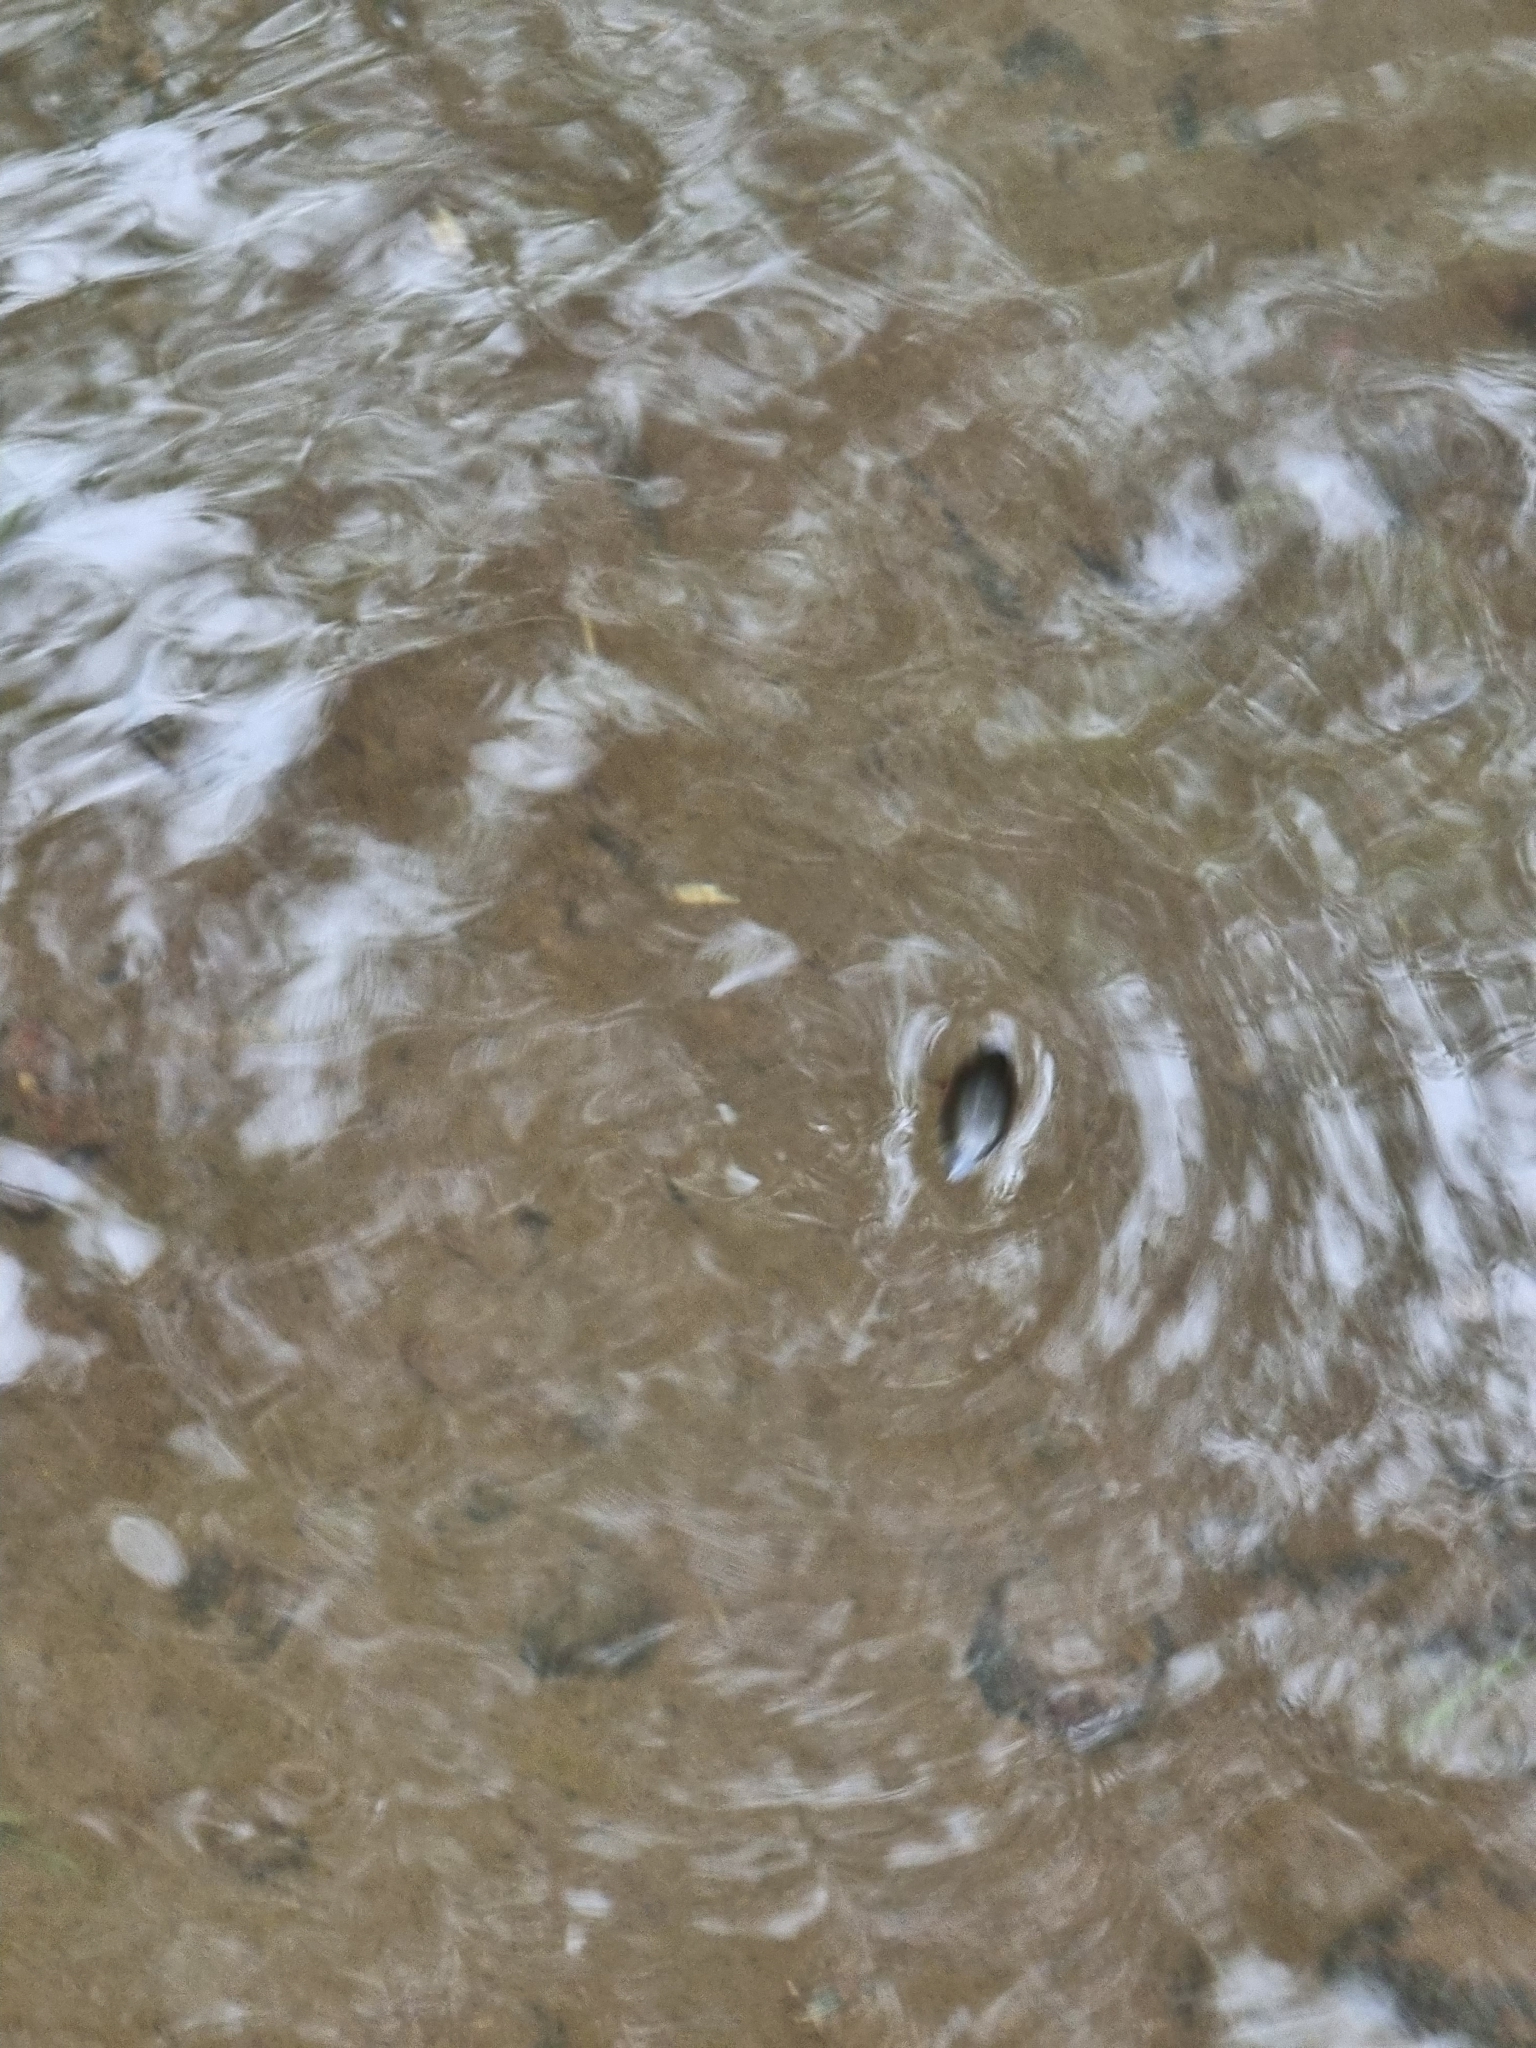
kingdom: Animalia
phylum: Arthropoda
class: Insecta
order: Coleoptera
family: Gyrinidae
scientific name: Gyrinidae
